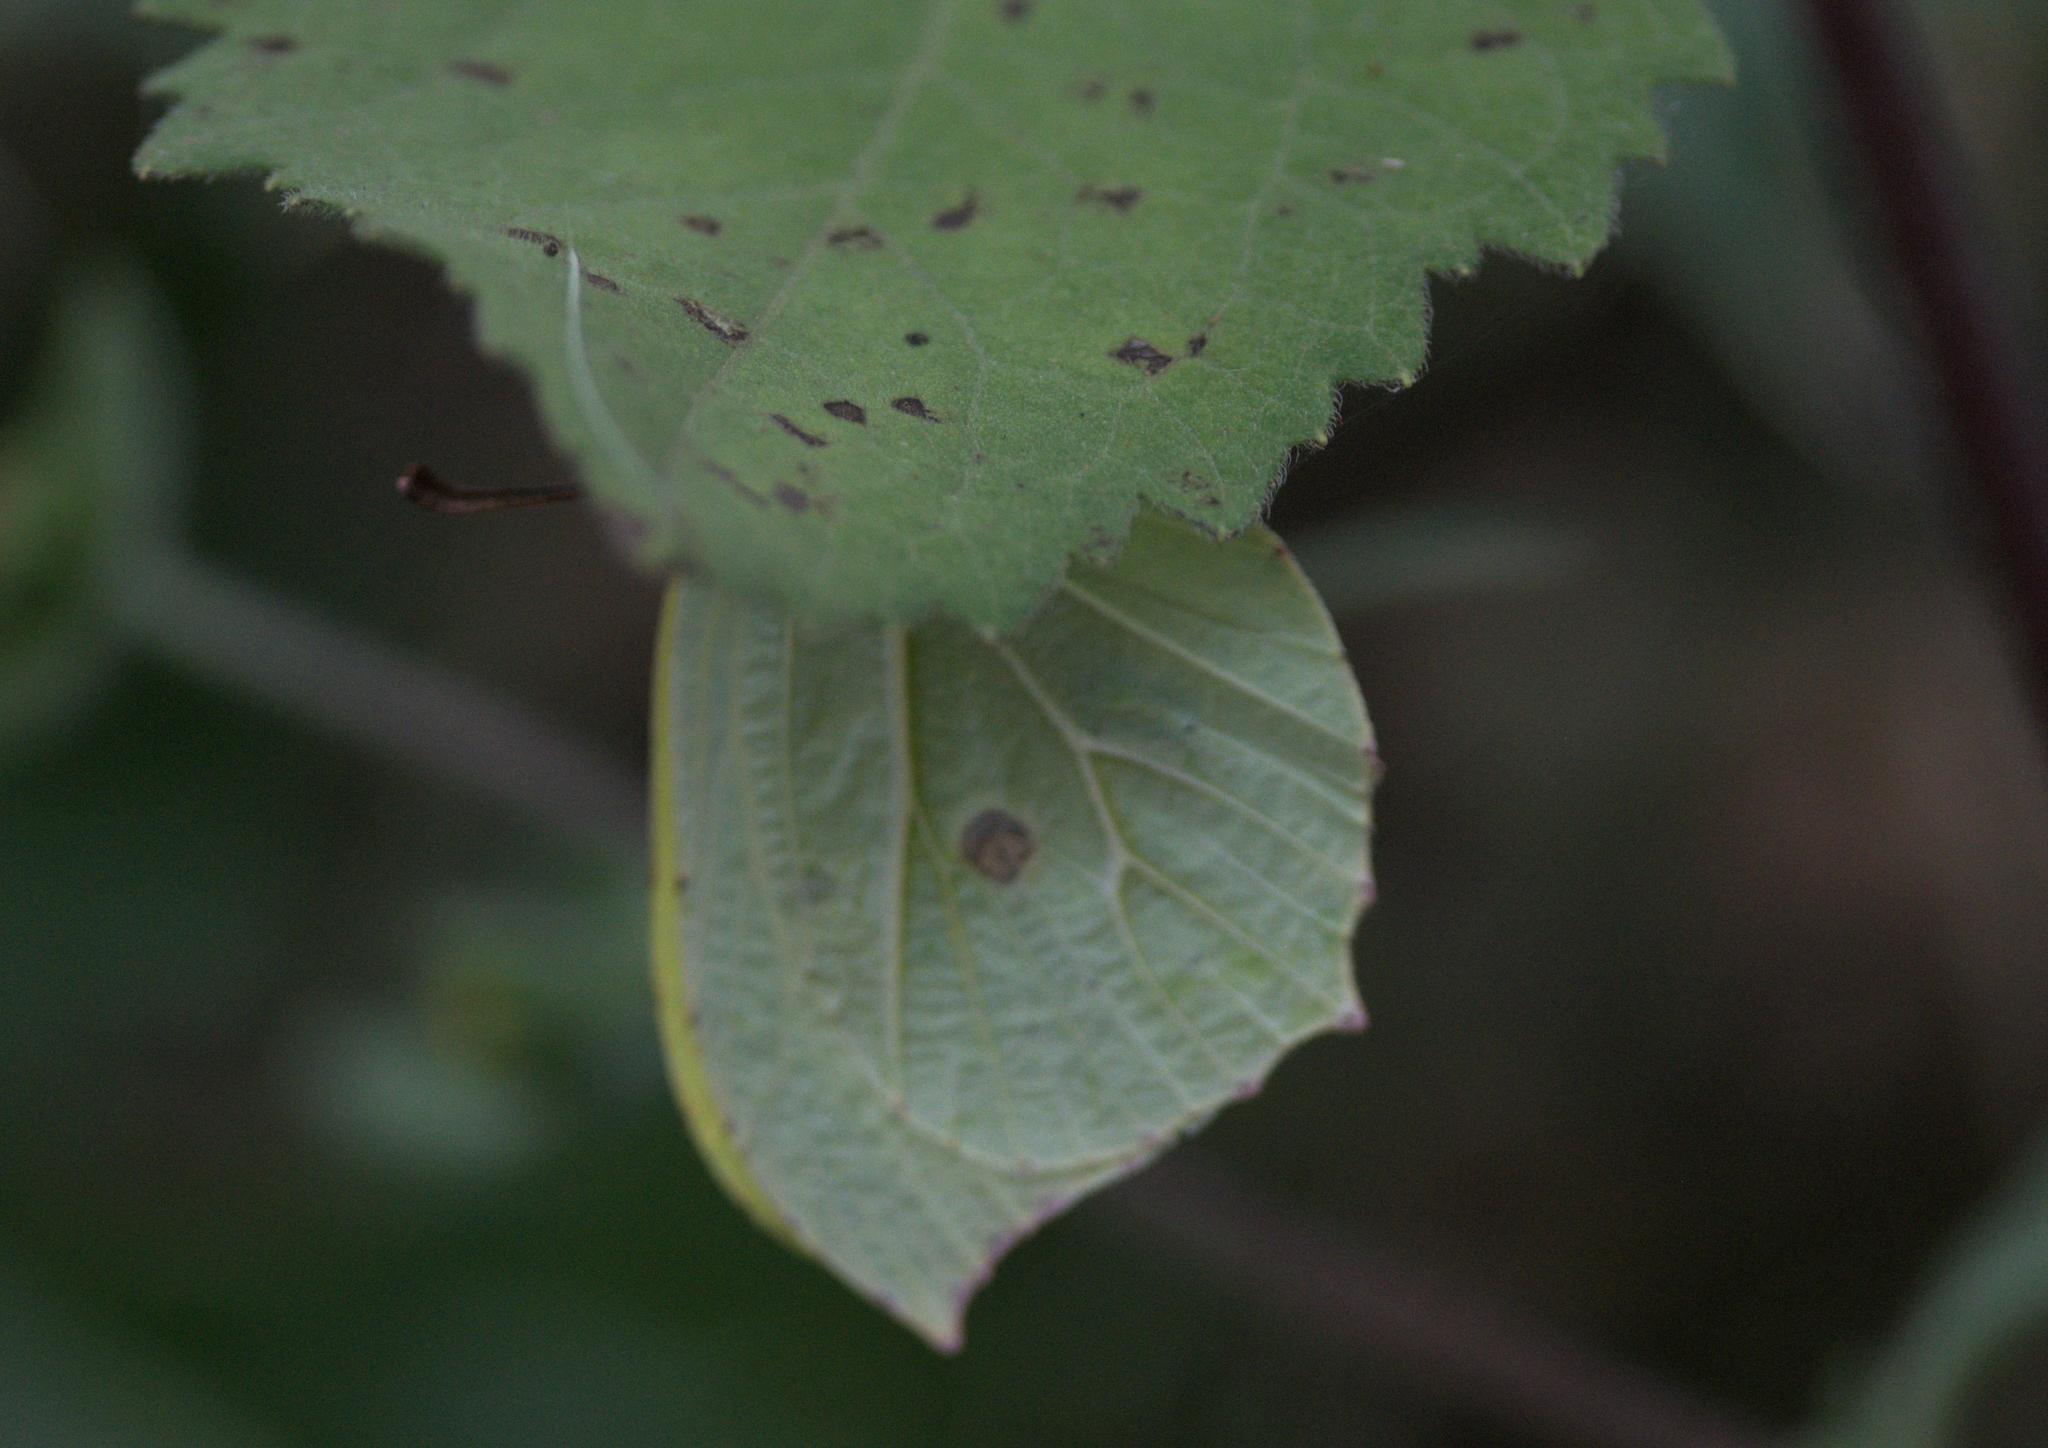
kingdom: Animalia
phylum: Arthropoda
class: Insecta
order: Lepidoptera
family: Pieridae
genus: Gonepteryx
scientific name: Gonepteryx
